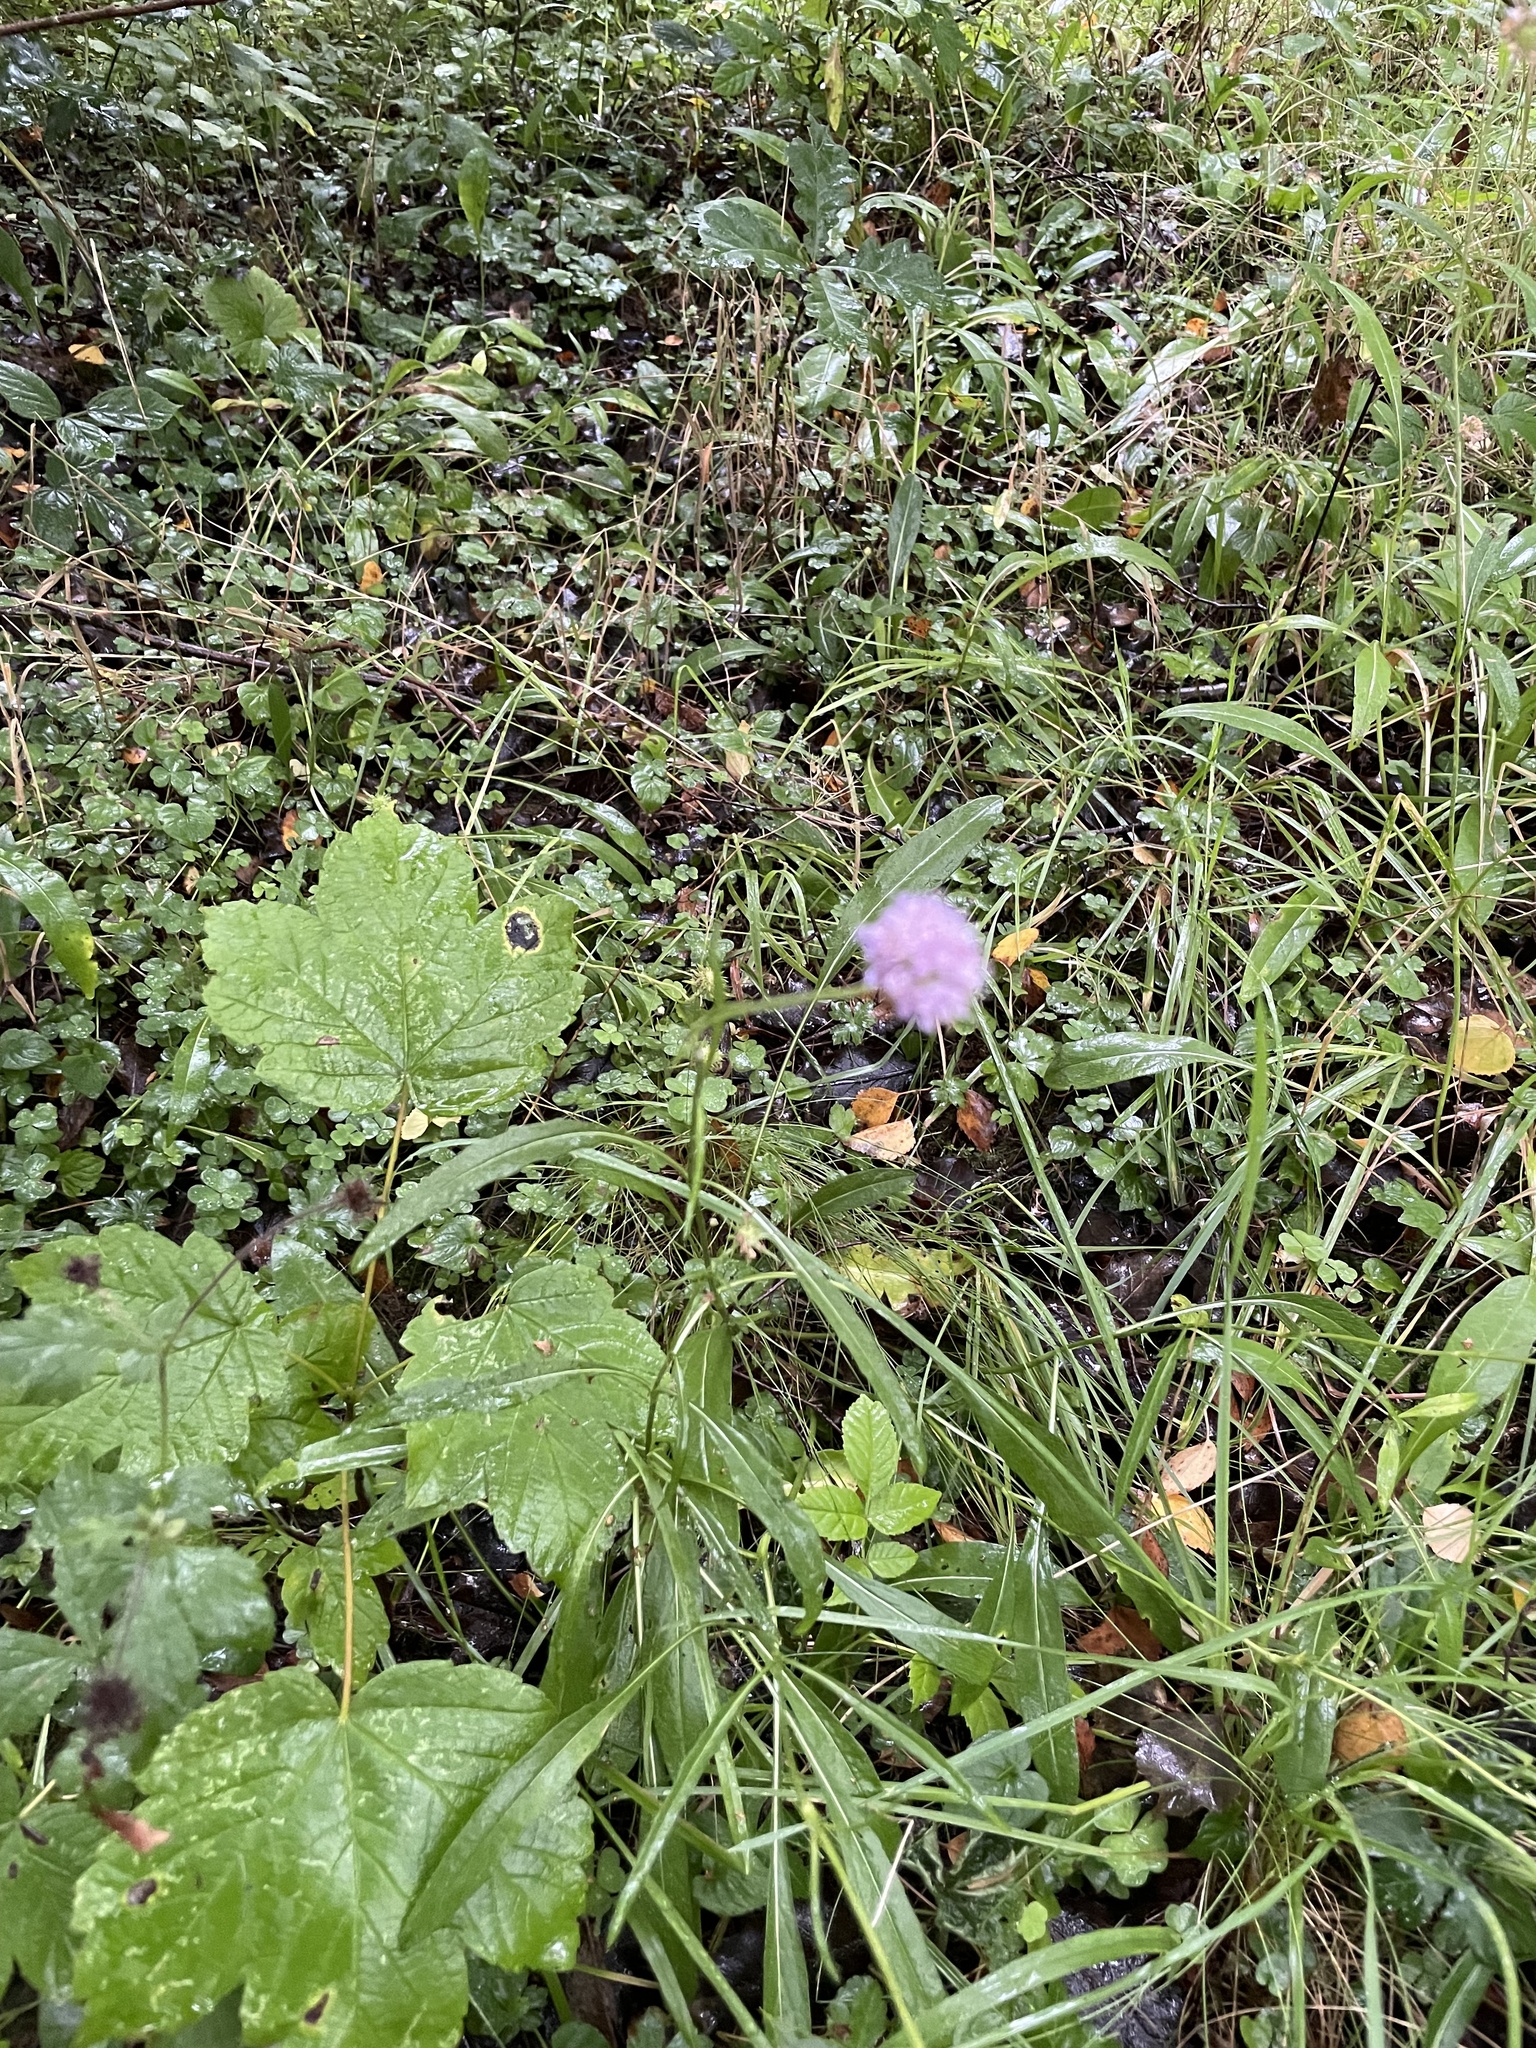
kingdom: Plantae
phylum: Tracheophyta
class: Magnoliopsida
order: Dipsacales
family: Caprifoliaceae
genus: Succisa
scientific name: Succisa pratensis
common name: Devil's-bit
